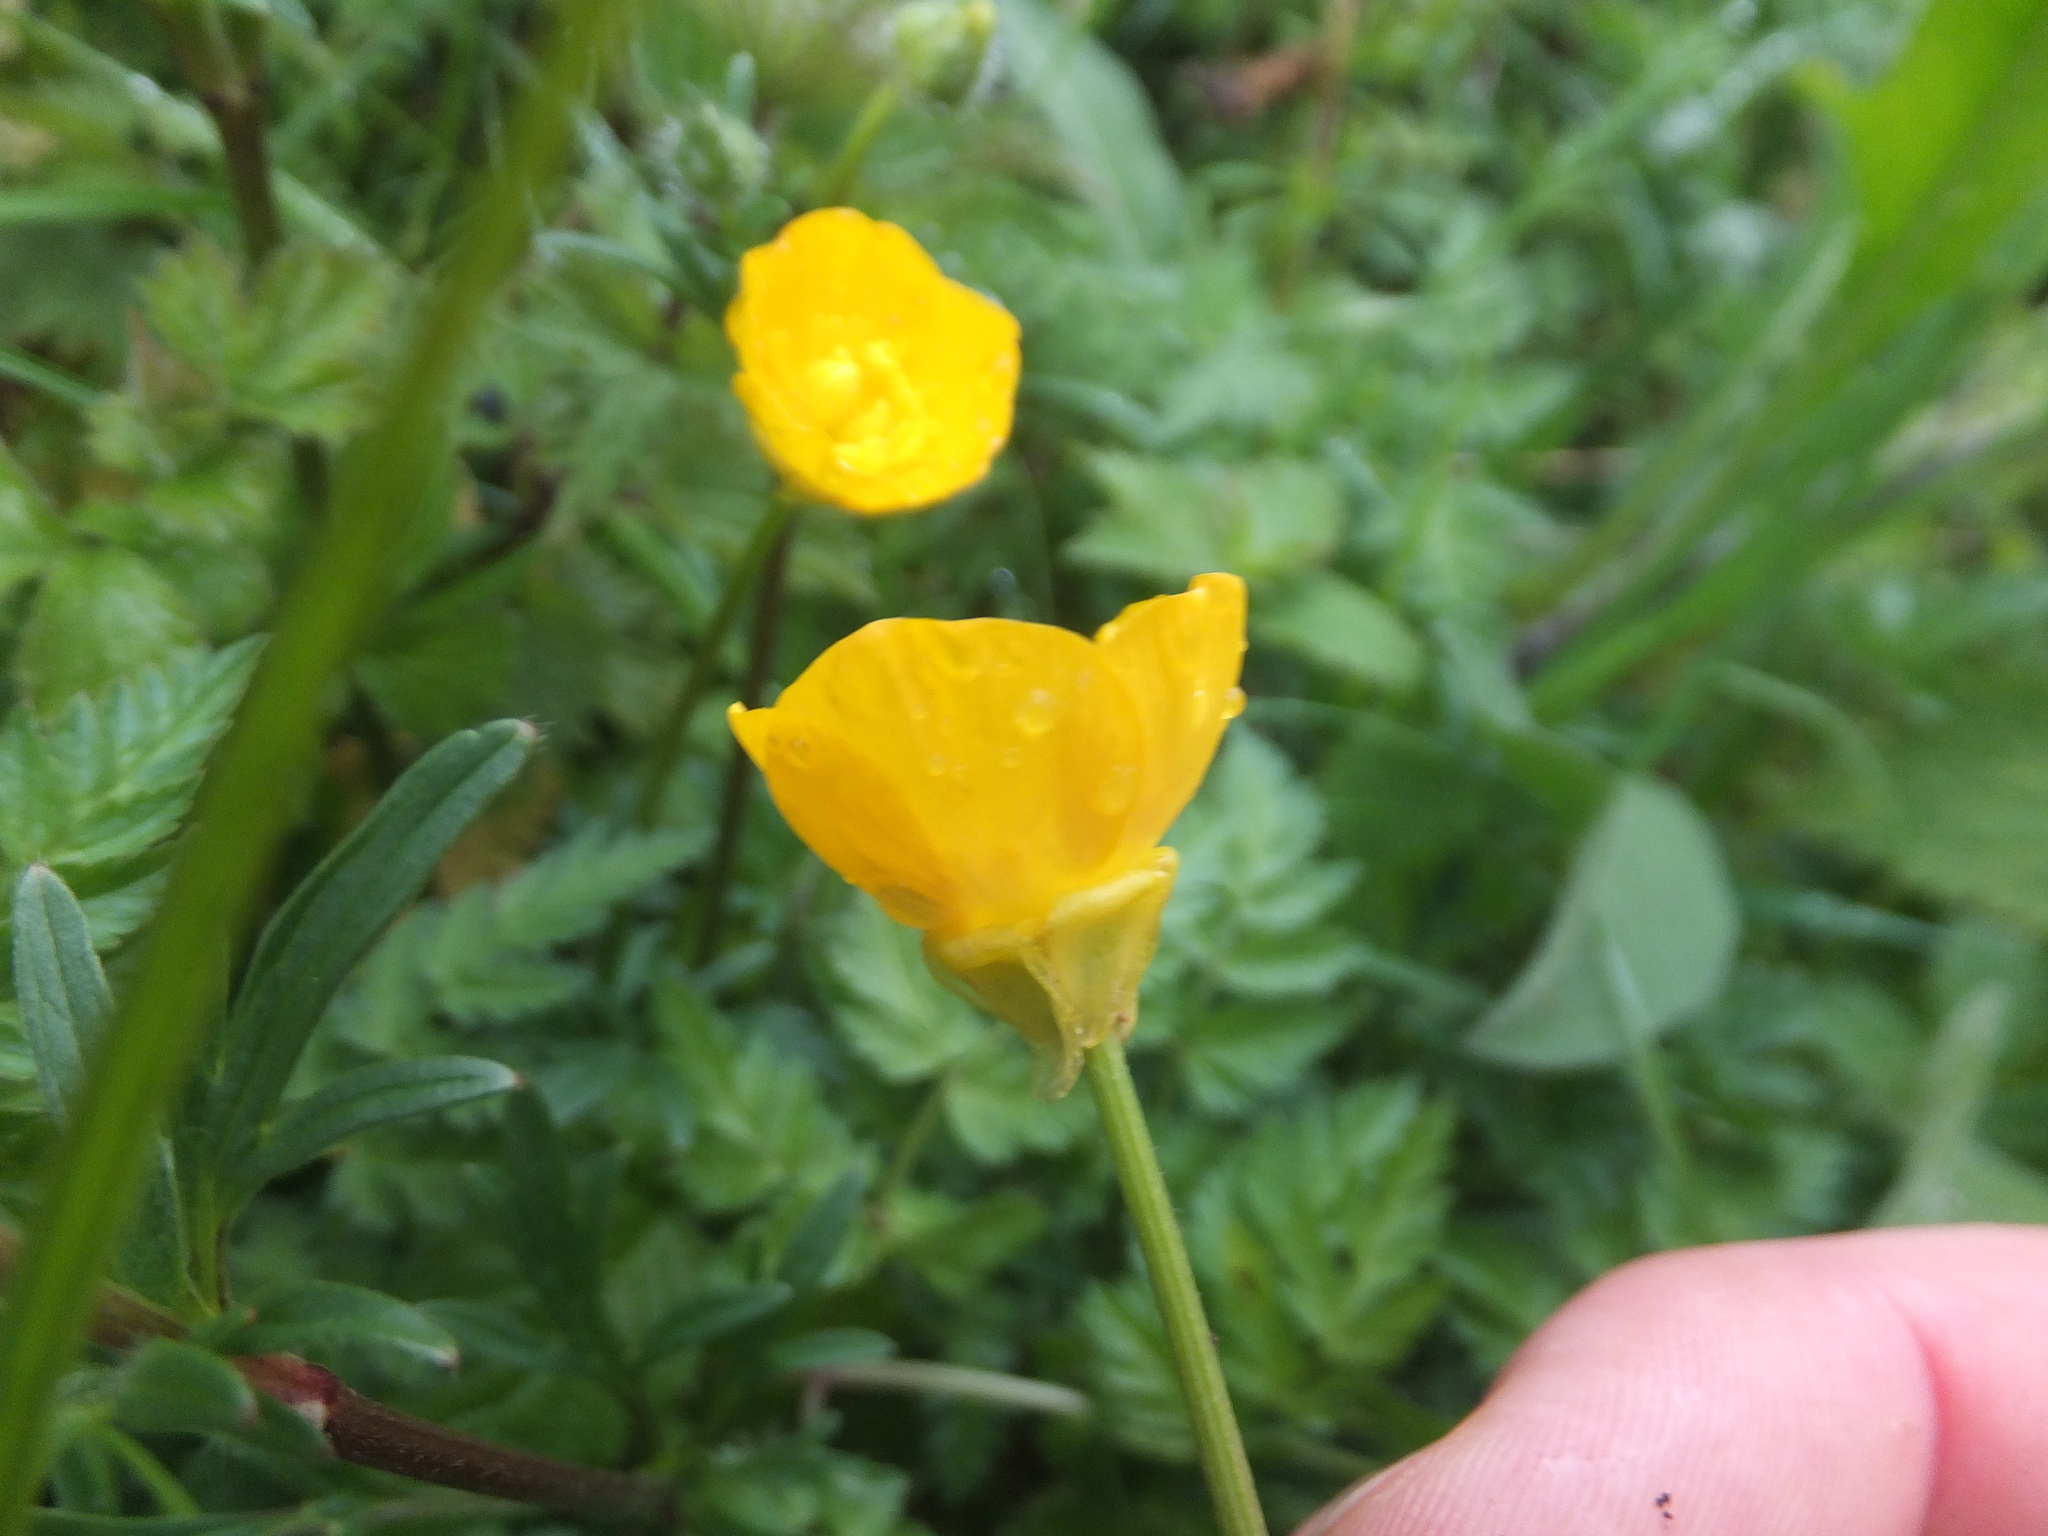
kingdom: Plantae
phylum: Tracheophyta
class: Magnoliopsida
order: Ranunculales
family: Ranunculaceae
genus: Ranunculus
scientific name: Ranunculus bulbosus
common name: Bulbous buttercup
